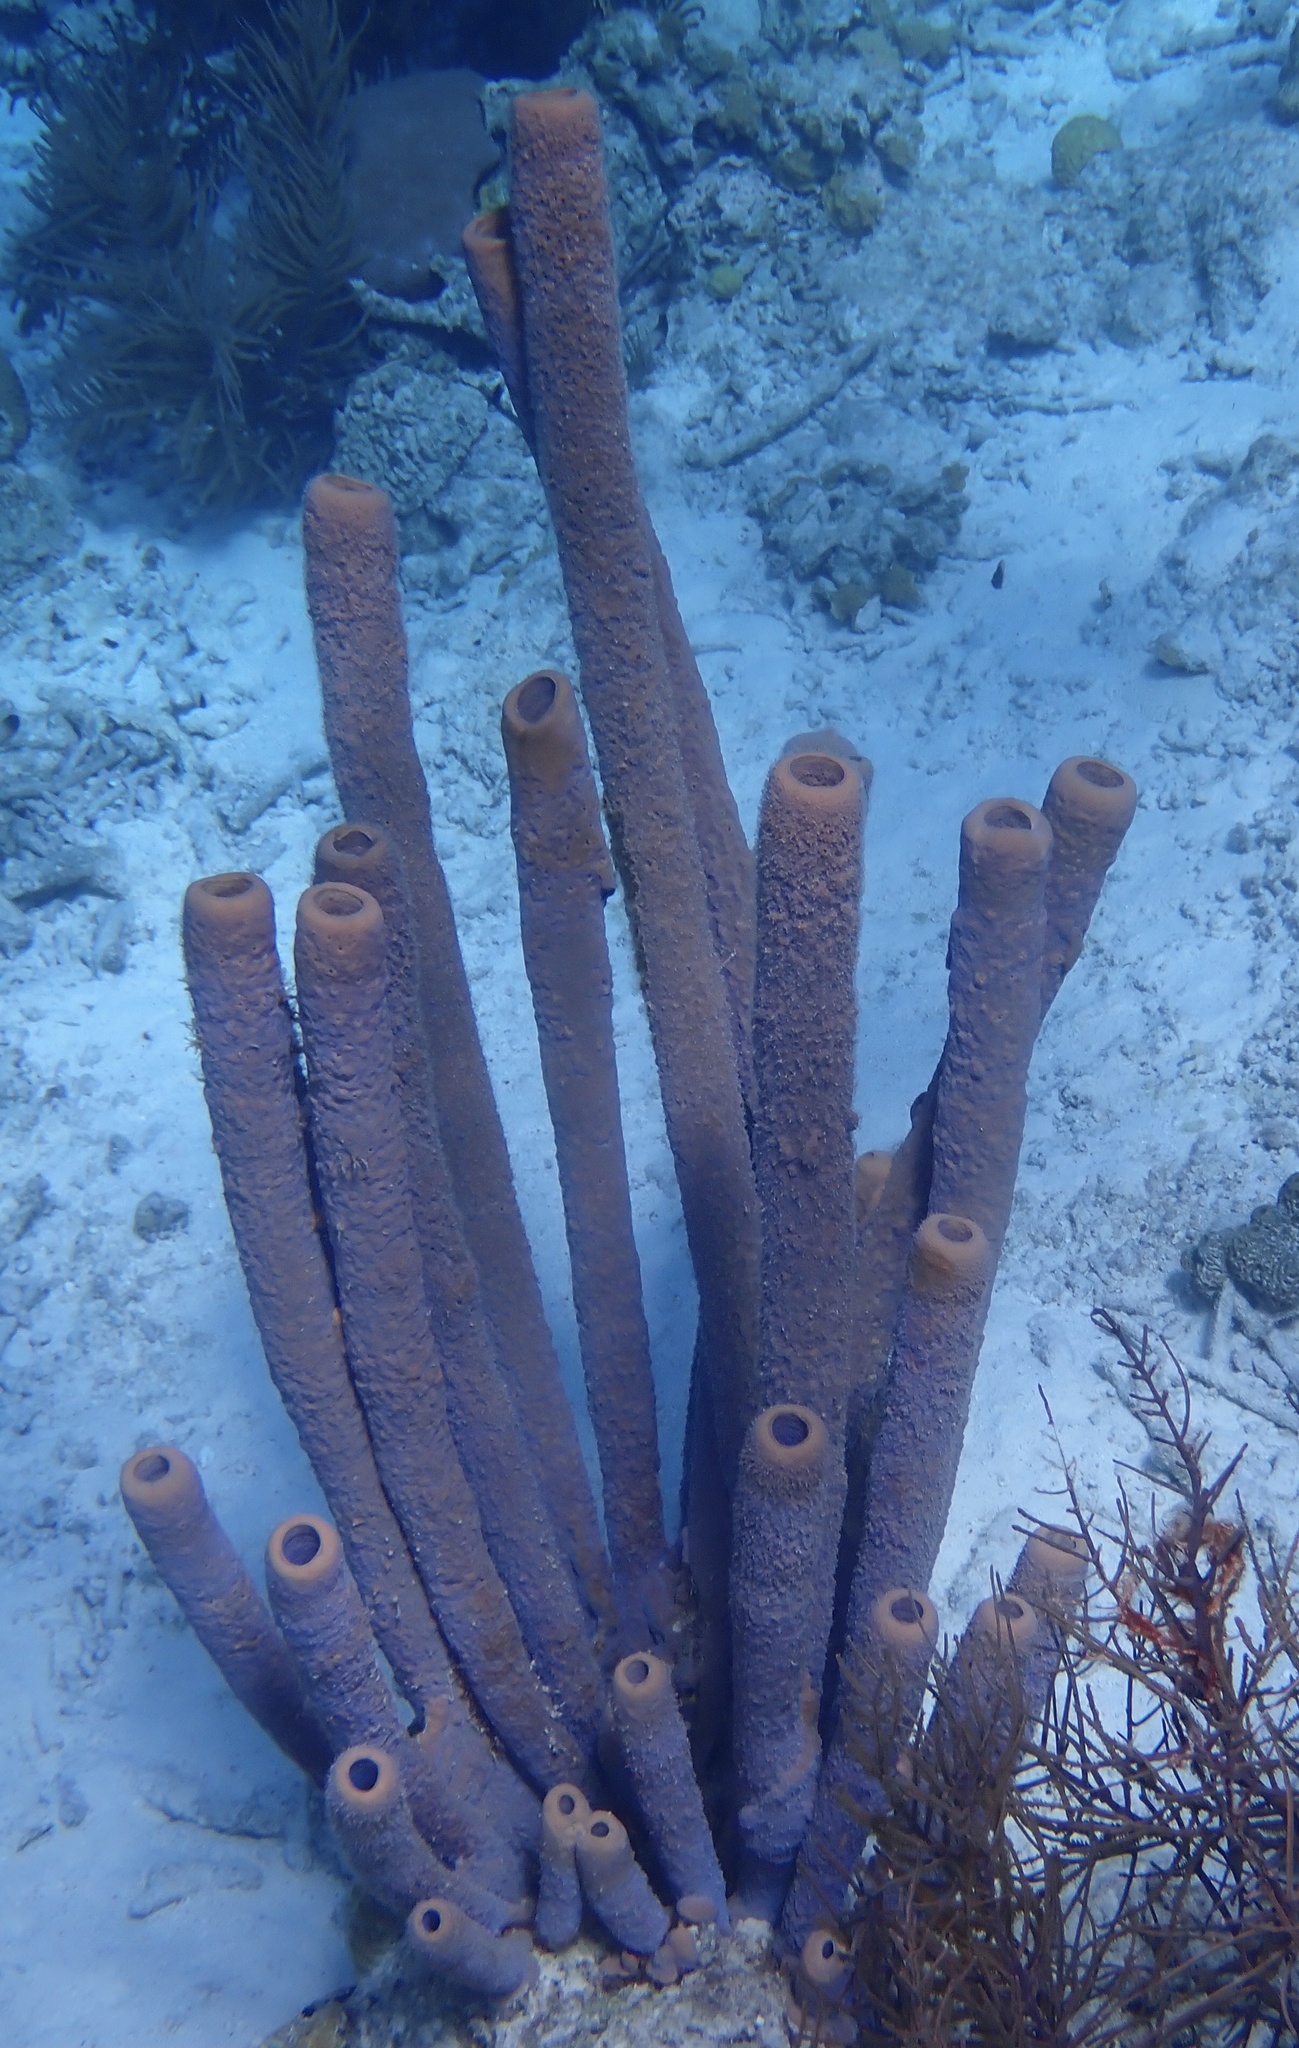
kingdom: Animalia
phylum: Porifera
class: Demospongiae
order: Verongiida
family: Aplysinidae
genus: Aplysina
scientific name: Aplysina archeri
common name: Stove-pipe sponge
